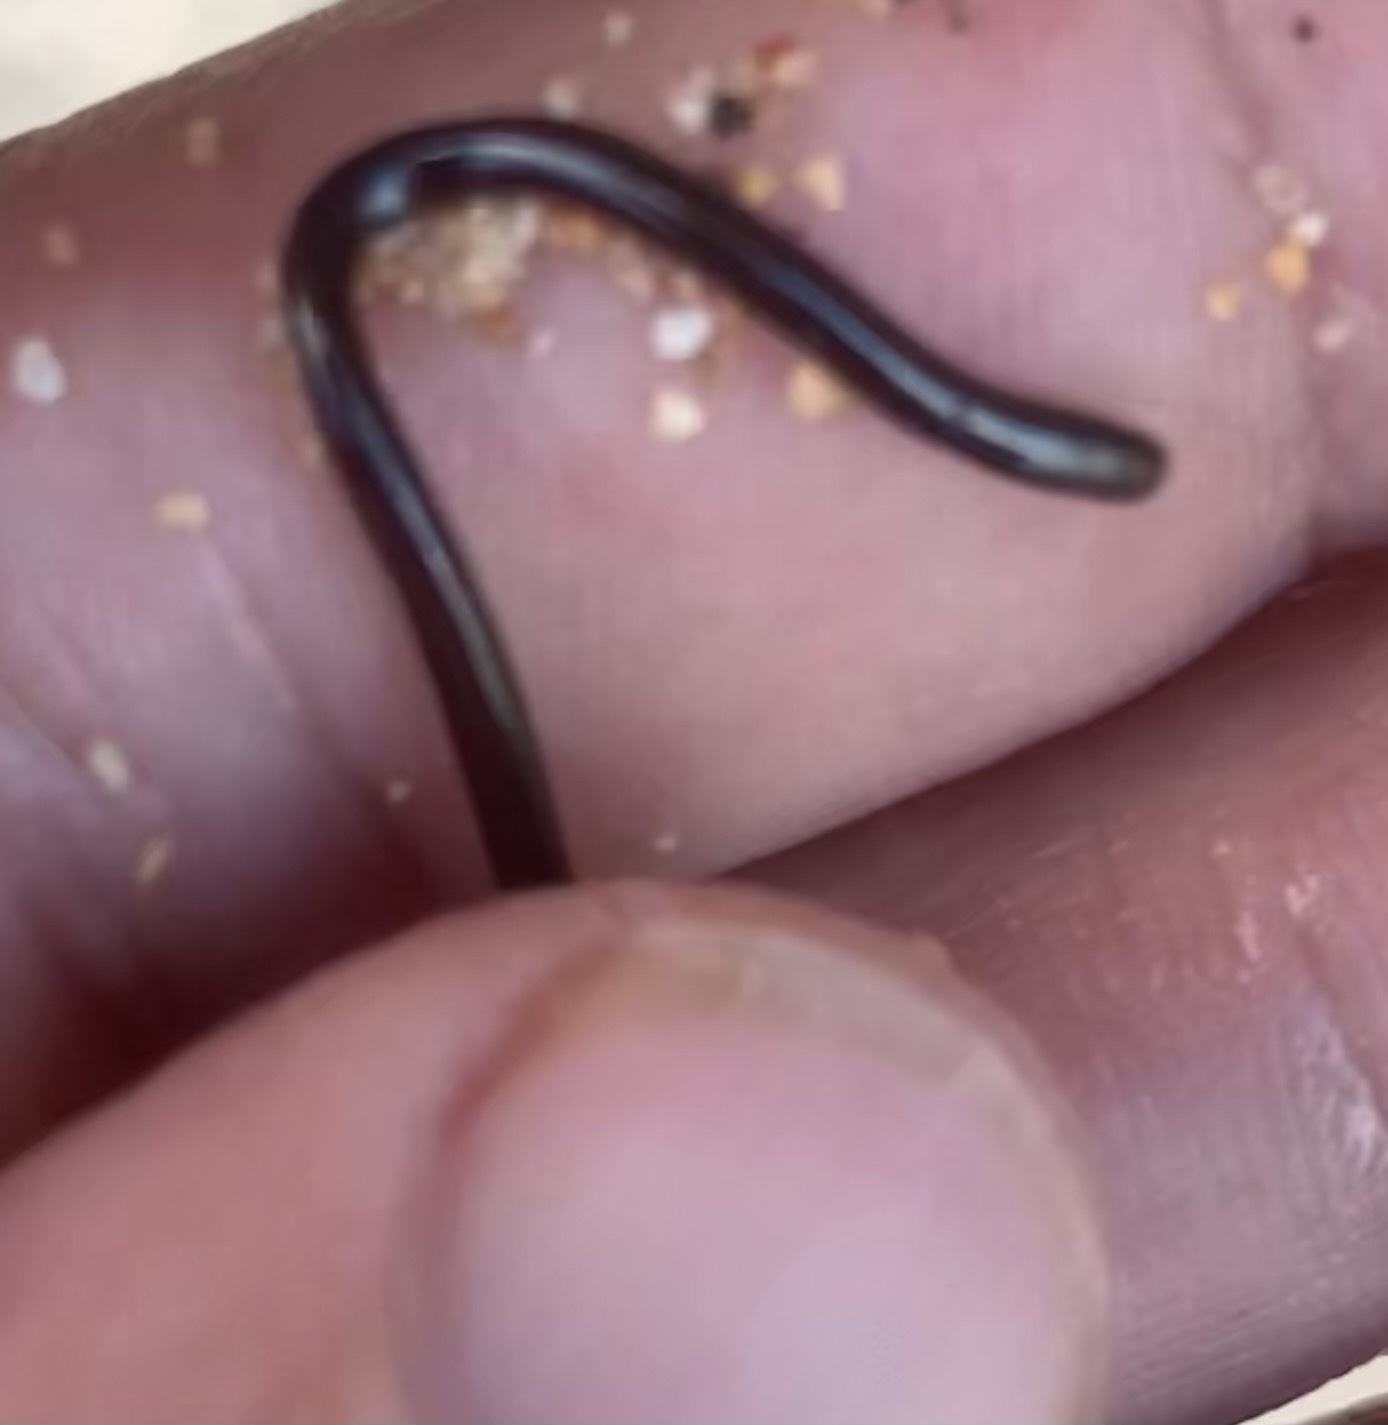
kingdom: Animalia
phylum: Chordata
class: Squamata
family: Typhlopidae
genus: Indotyphlops
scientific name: Indotyphlops braminus
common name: Brahminy blindsnake
